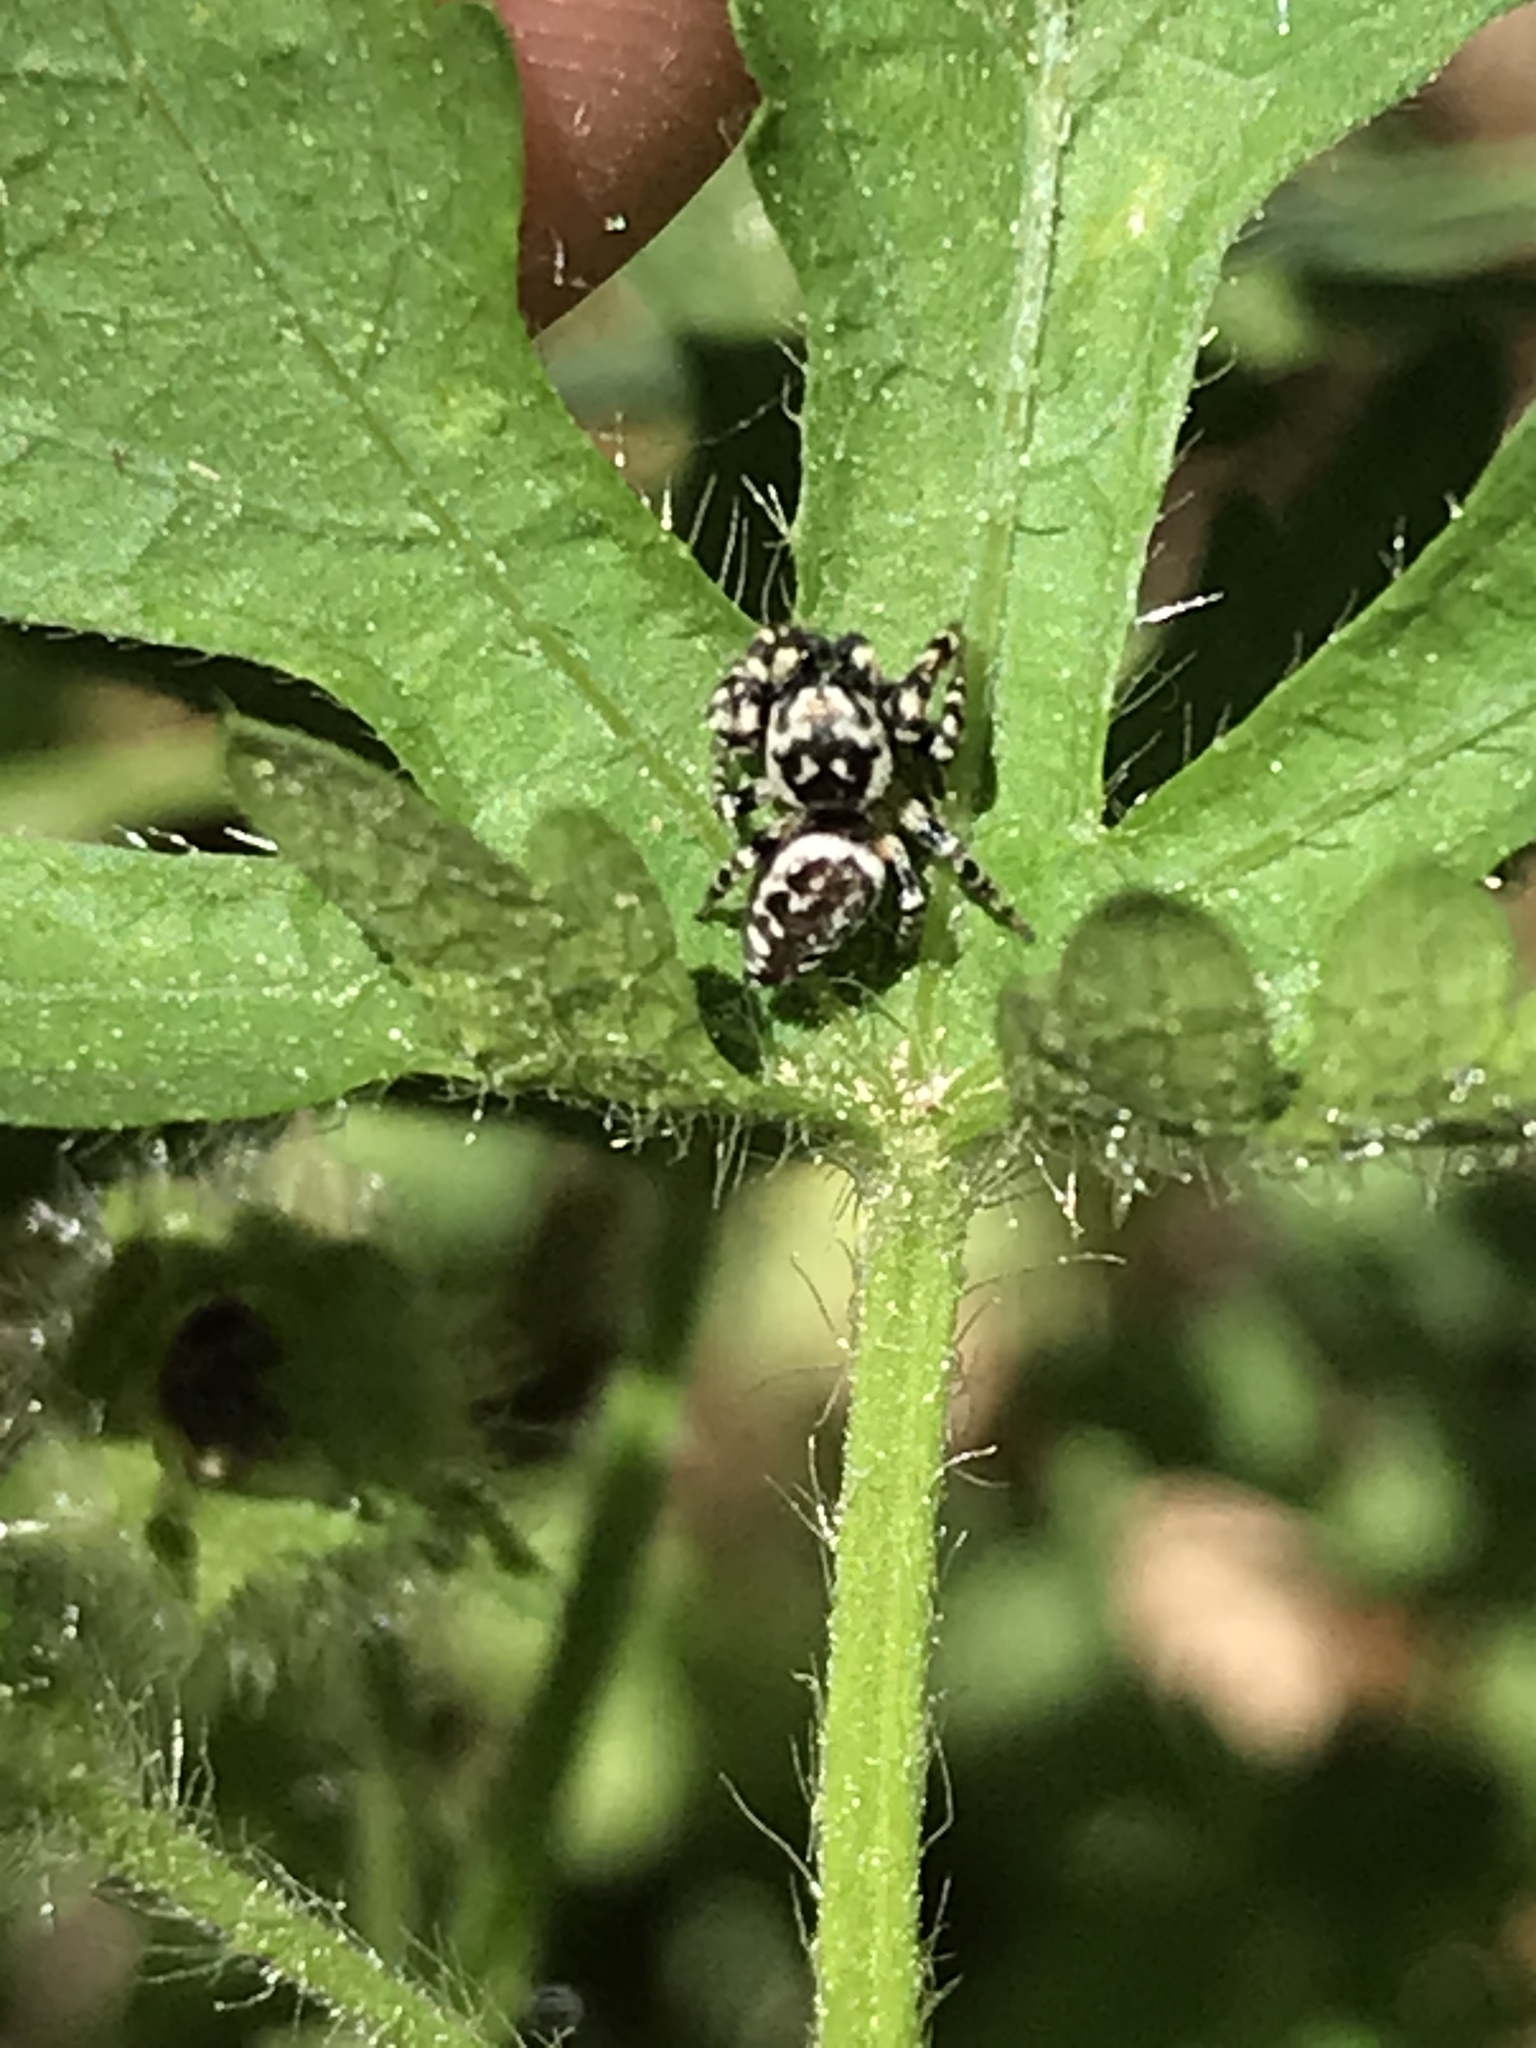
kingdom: Animalia
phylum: Arthropoda
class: Arachnida
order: Araneae
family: Salticidae
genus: Pelegrina
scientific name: Pelegrina galathea
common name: Jumping spiders
